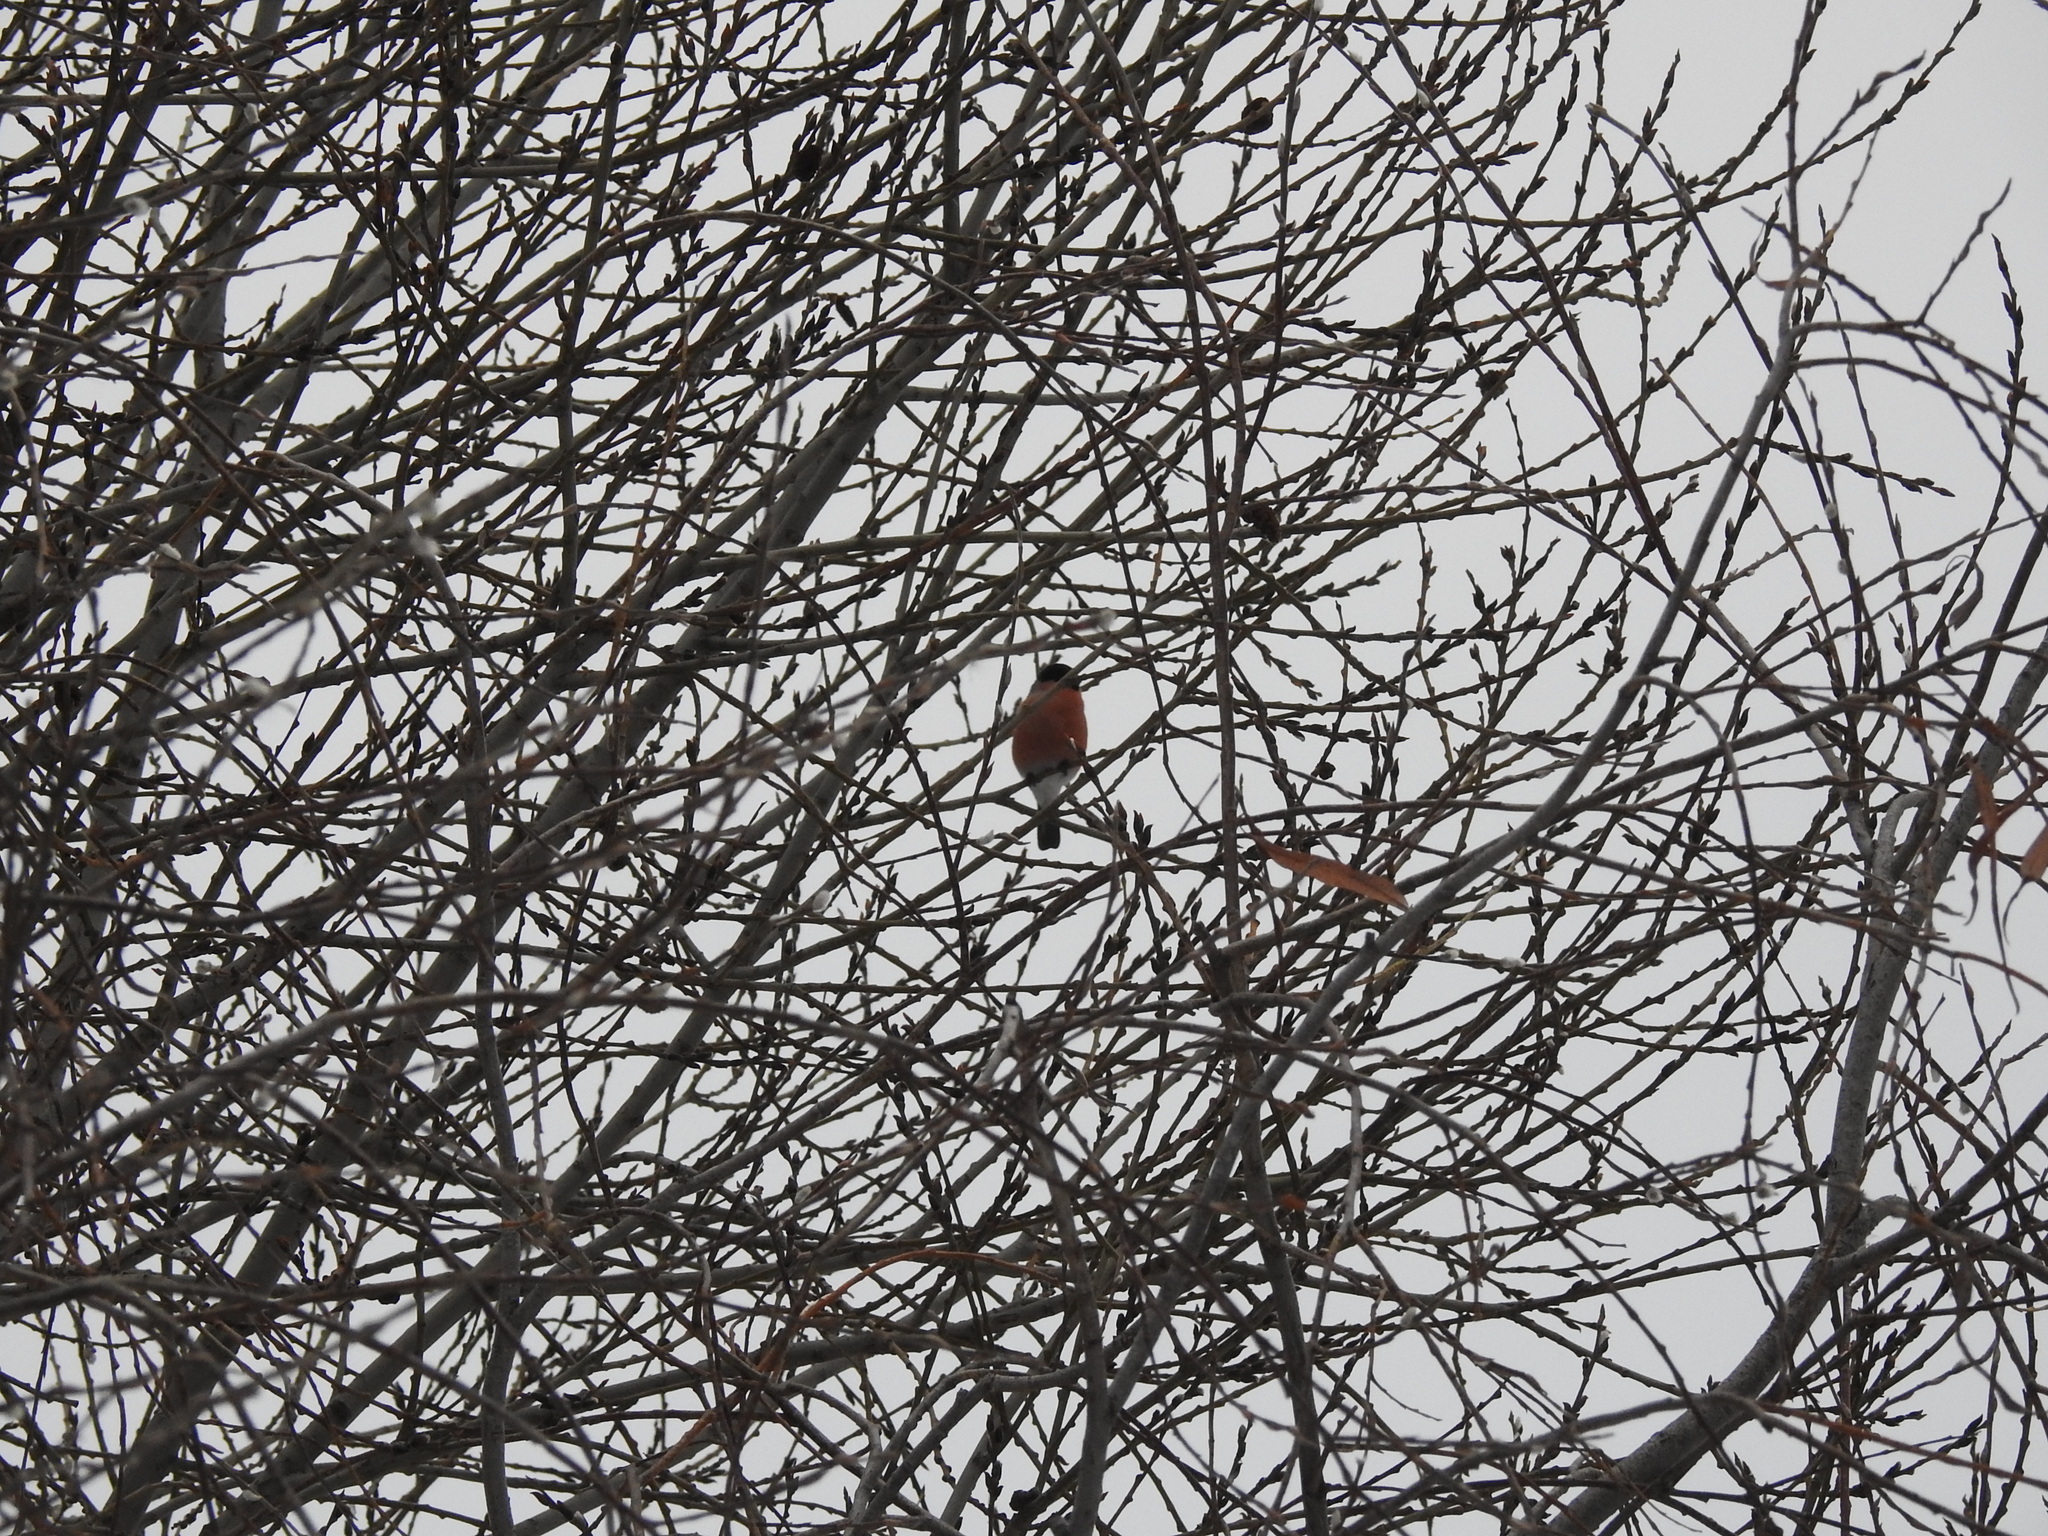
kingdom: Animalia
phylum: Chordata
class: Aves
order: Passeriformes
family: Fringillidae
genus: Pyrrhula
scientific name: Pyrrhula pyrrhula
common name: Eurasian bullfinch
